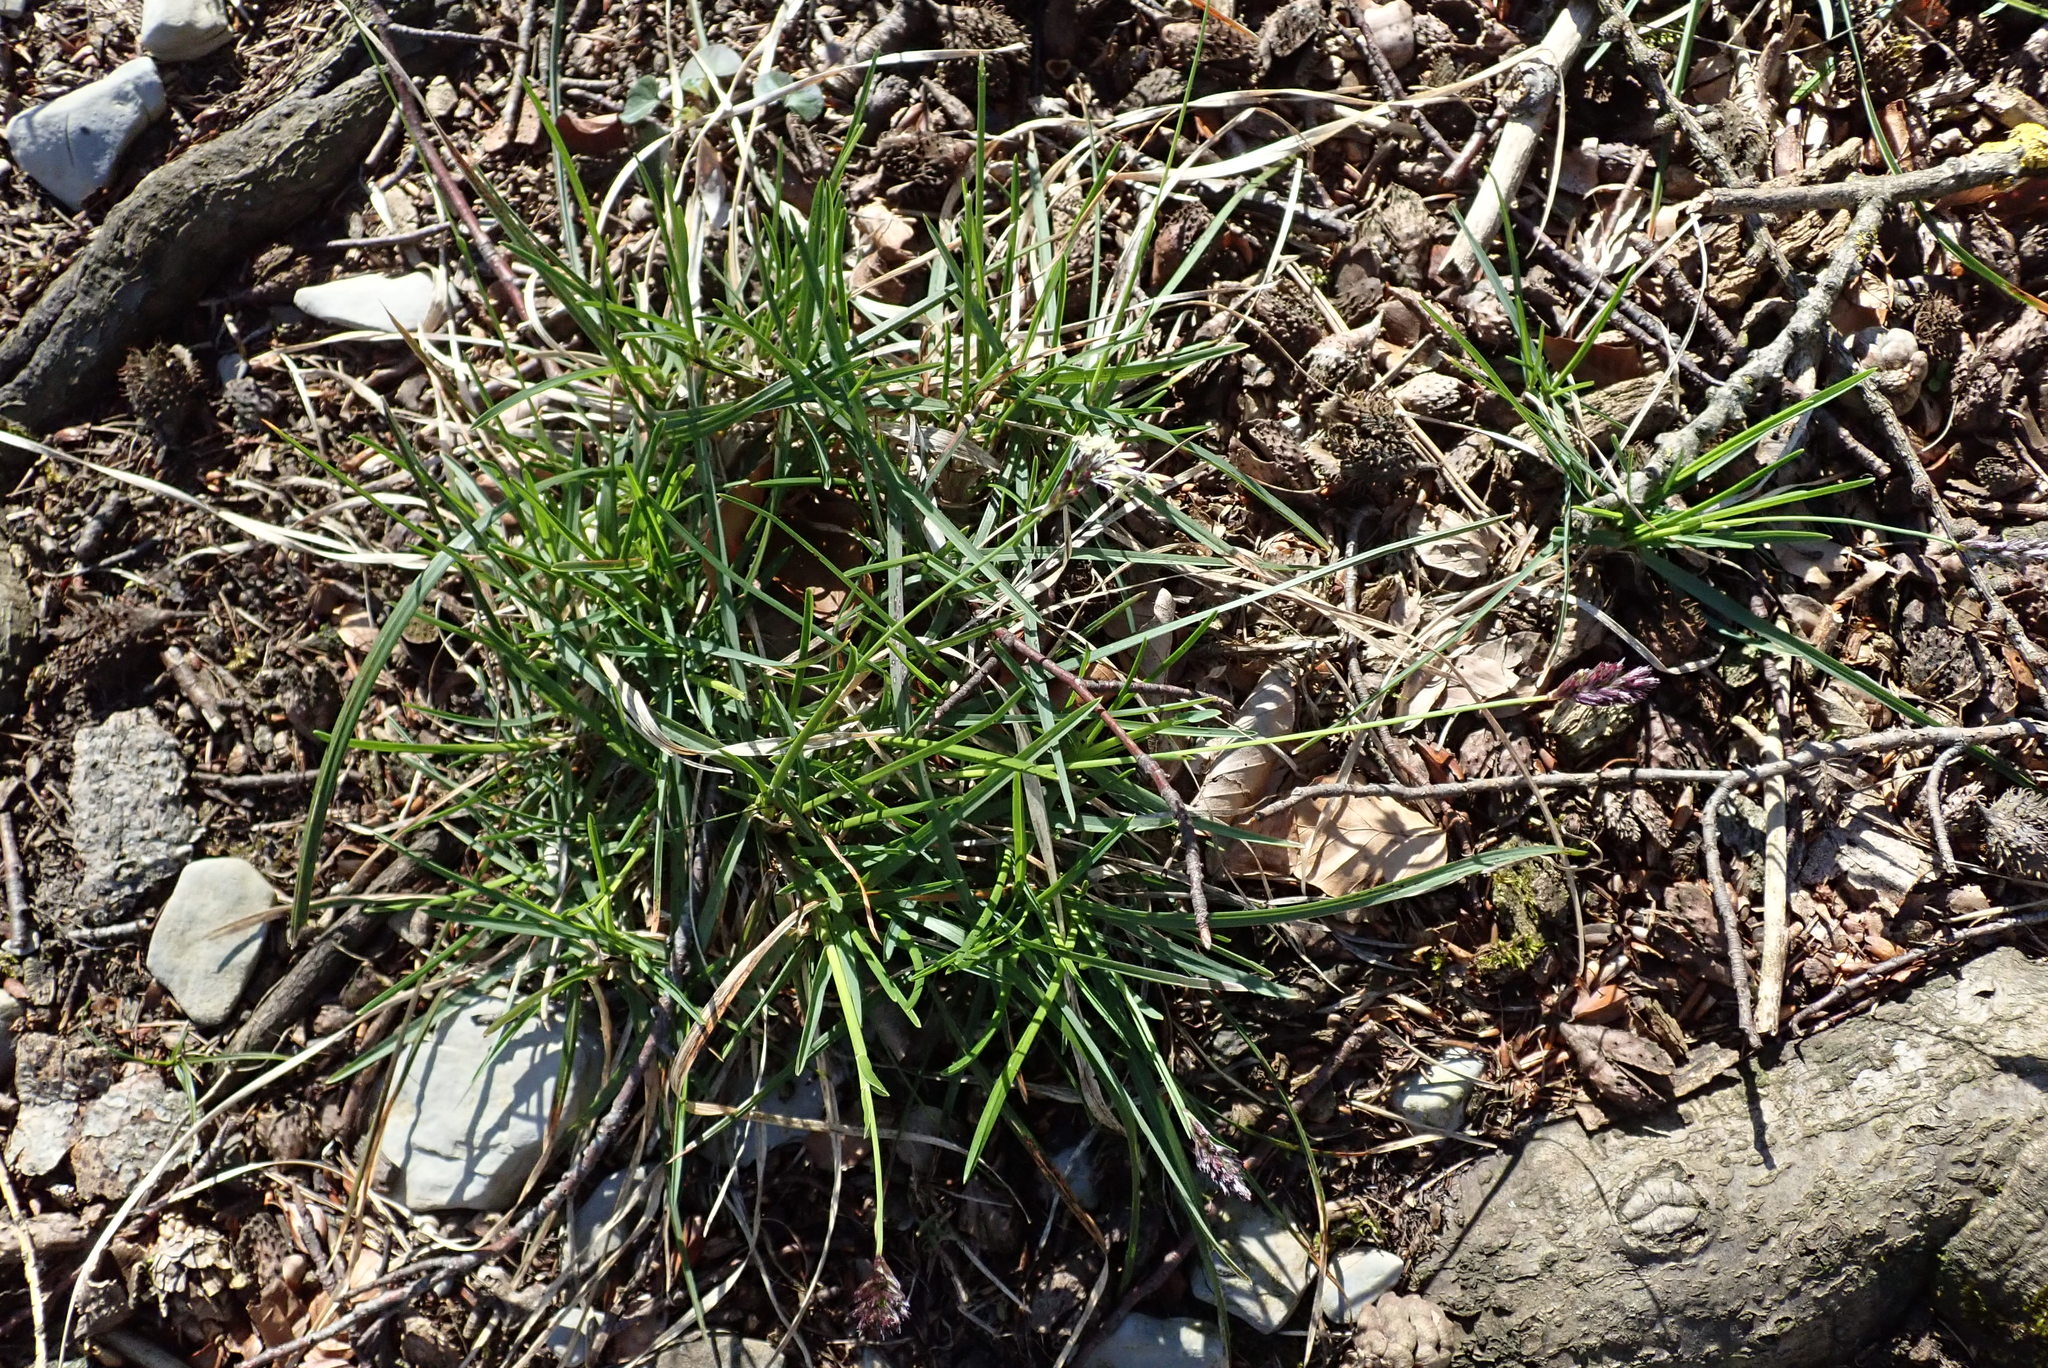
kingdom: Plantae
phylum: Tracheophyta
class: Liliopsida
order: Poales
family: Poaceae
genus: Sesleria
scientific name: Sesleria caerulea
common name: Blue moor-grass
